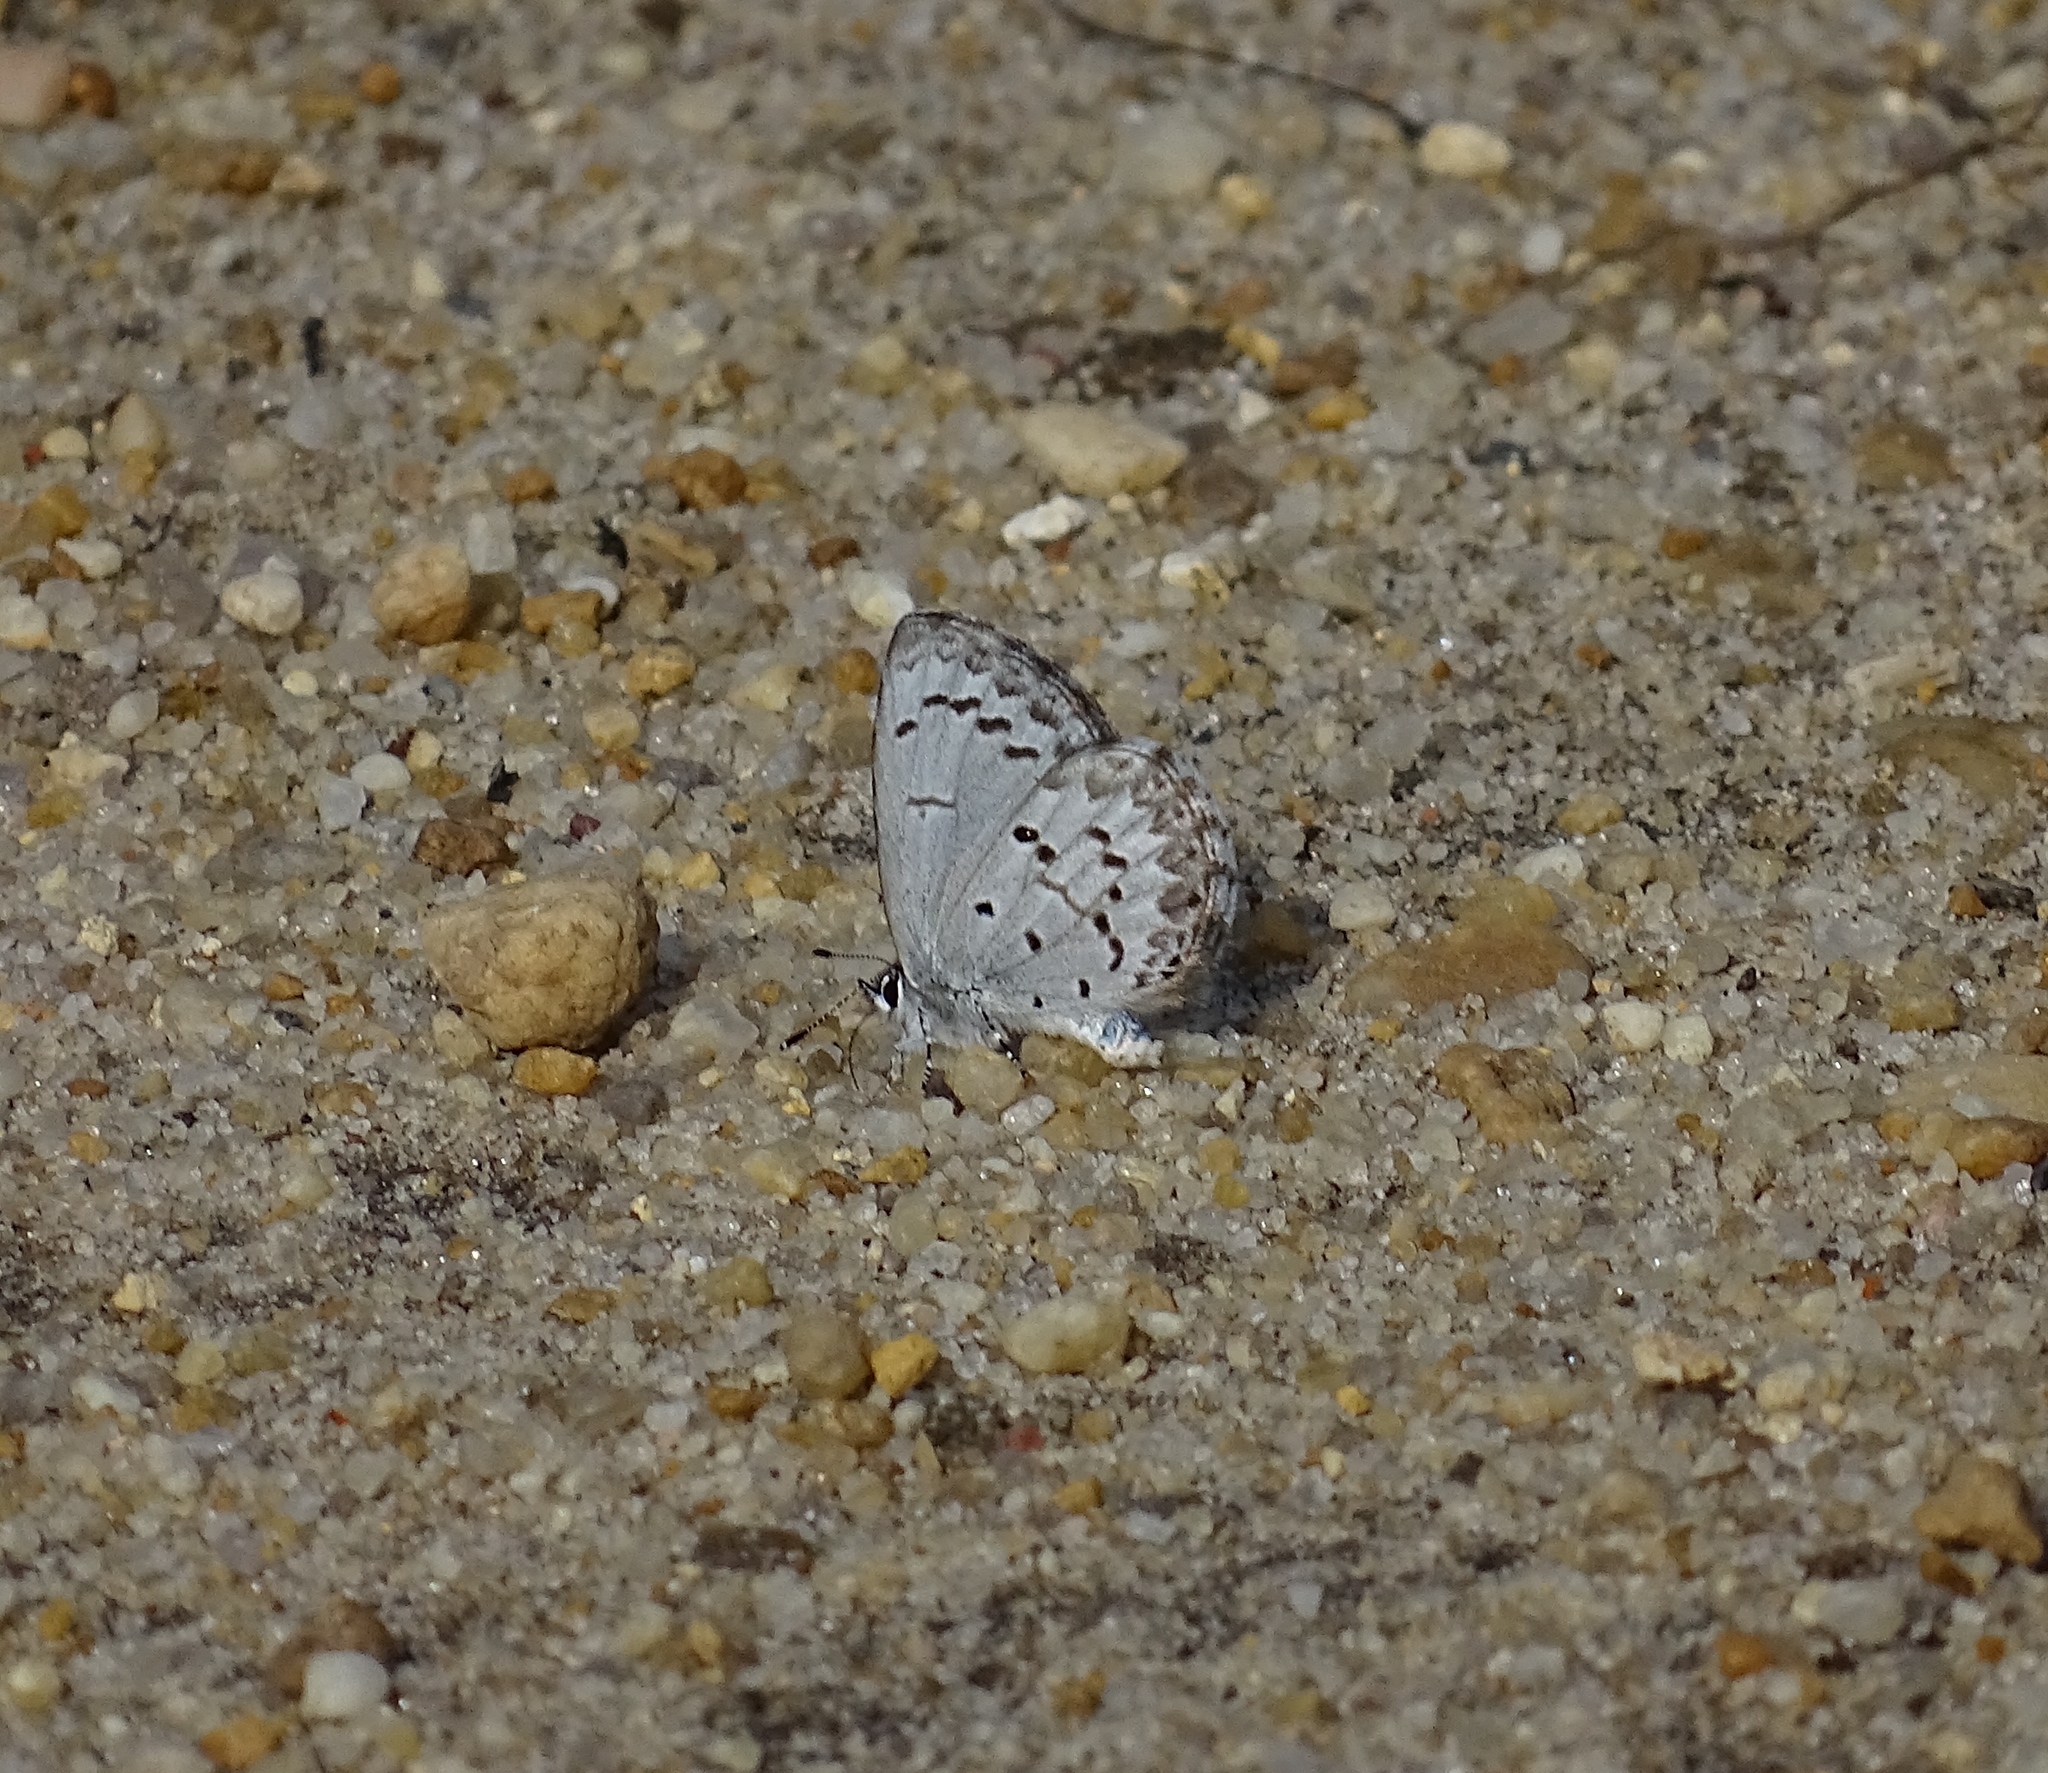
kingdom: Animalia
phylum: Arthropoda
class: Insecta
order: Lepidoptera
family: Lycaenidae
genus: Celastrina
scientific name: Celastrina ladon
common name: Spring azure
